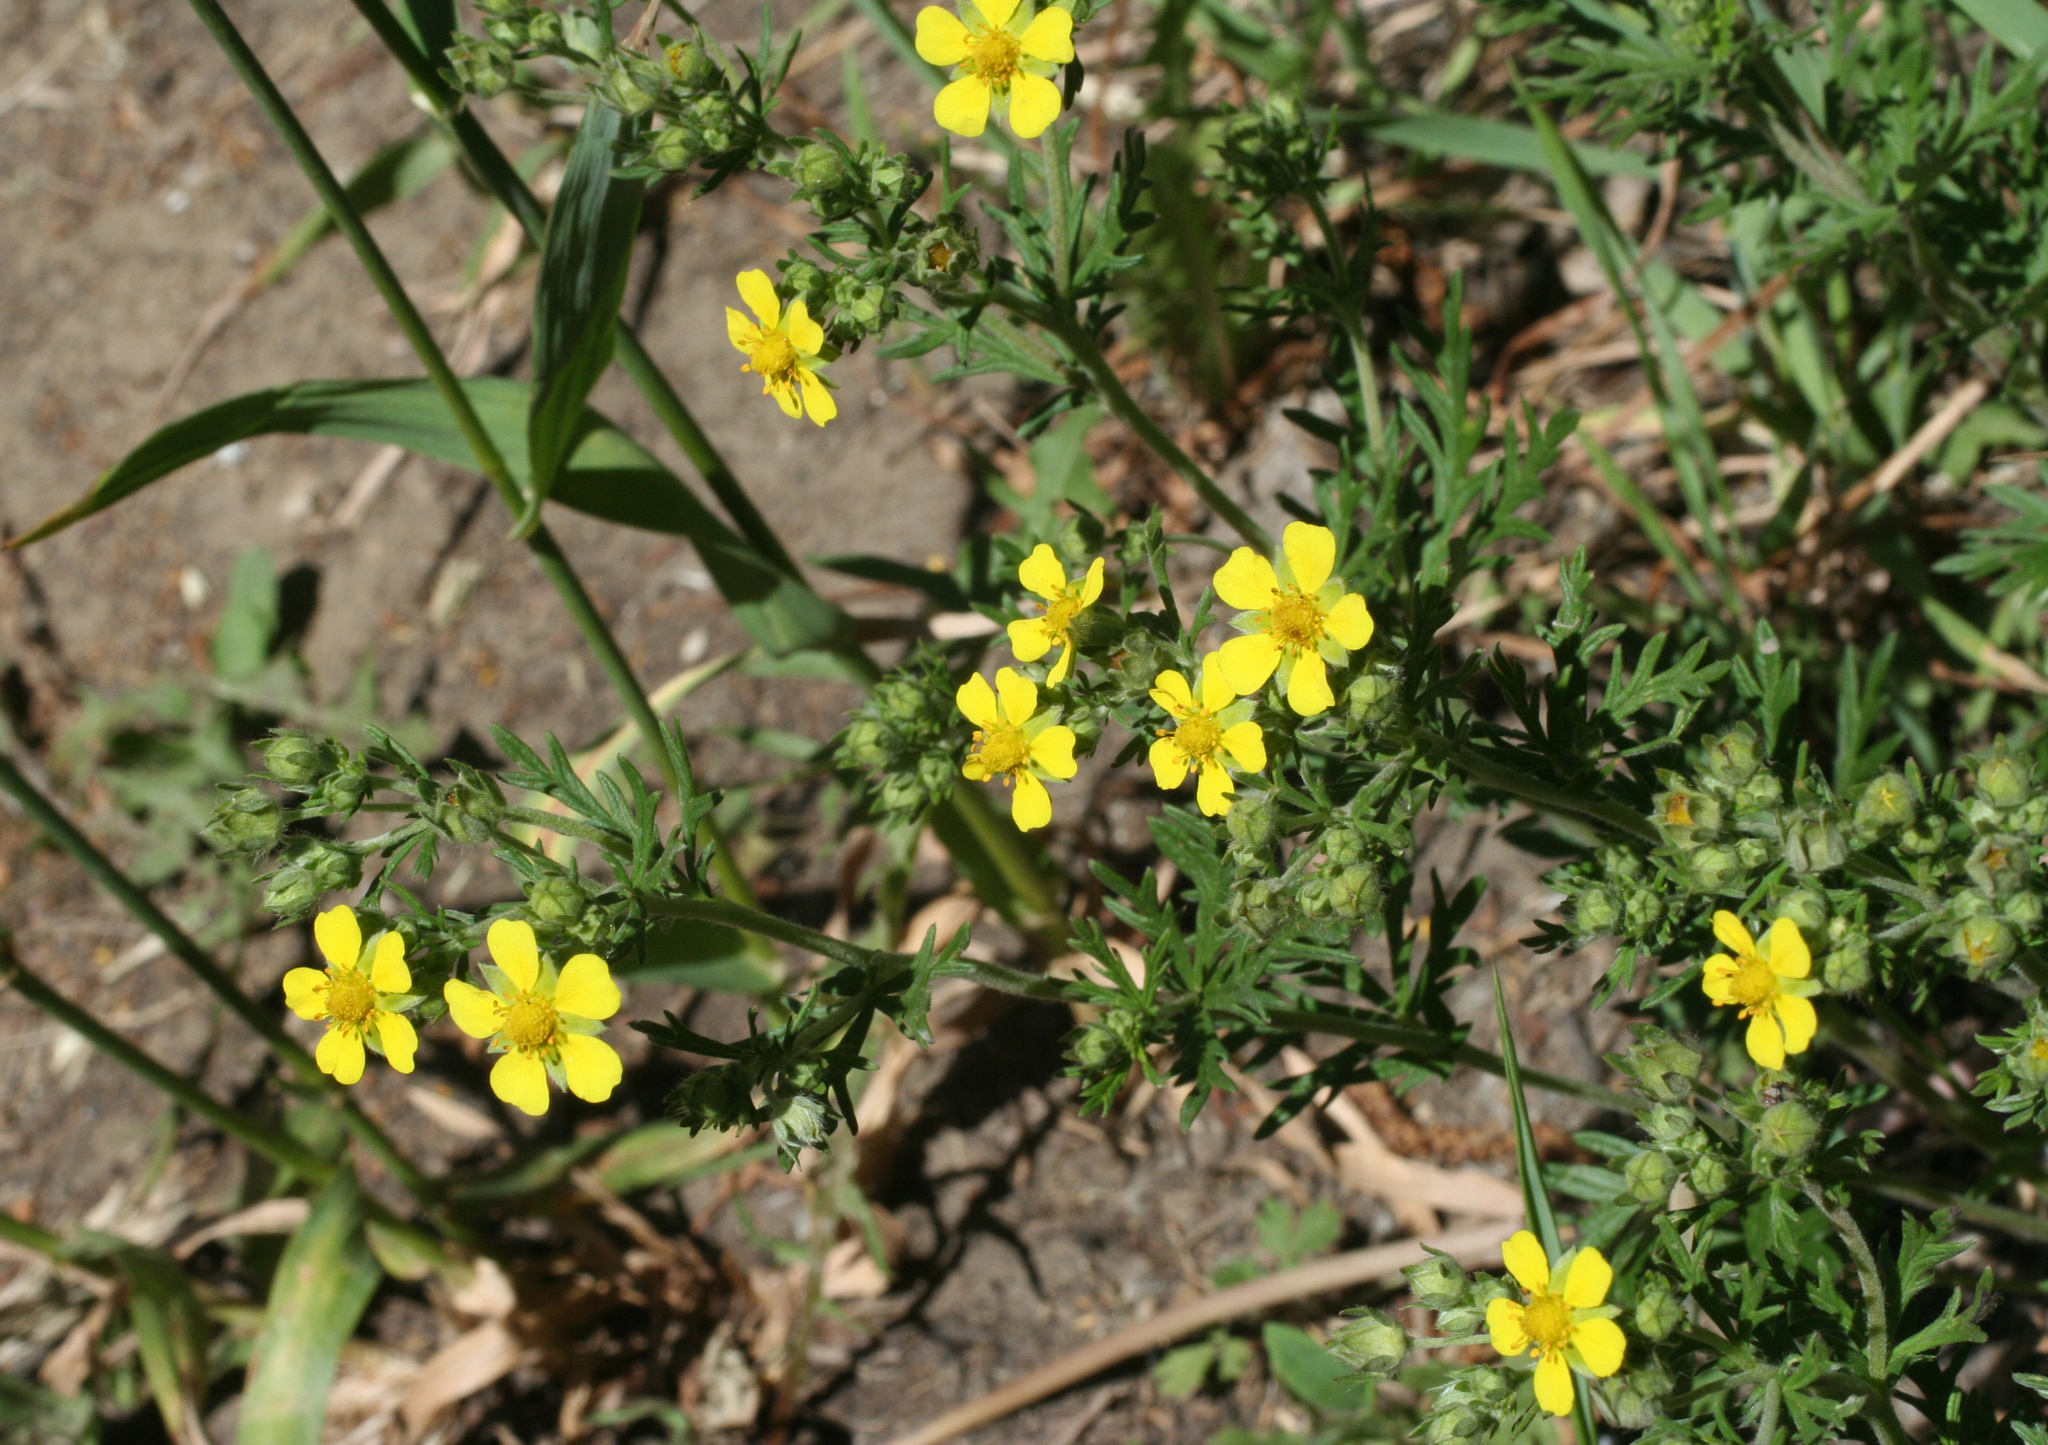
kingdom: Plantae
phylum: Tracheophyta
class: Magnoliopsida
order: Rosales
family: Rosaceae
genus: Potentilla
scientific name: Potentilla argentea
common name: Hoary cinquefoil
